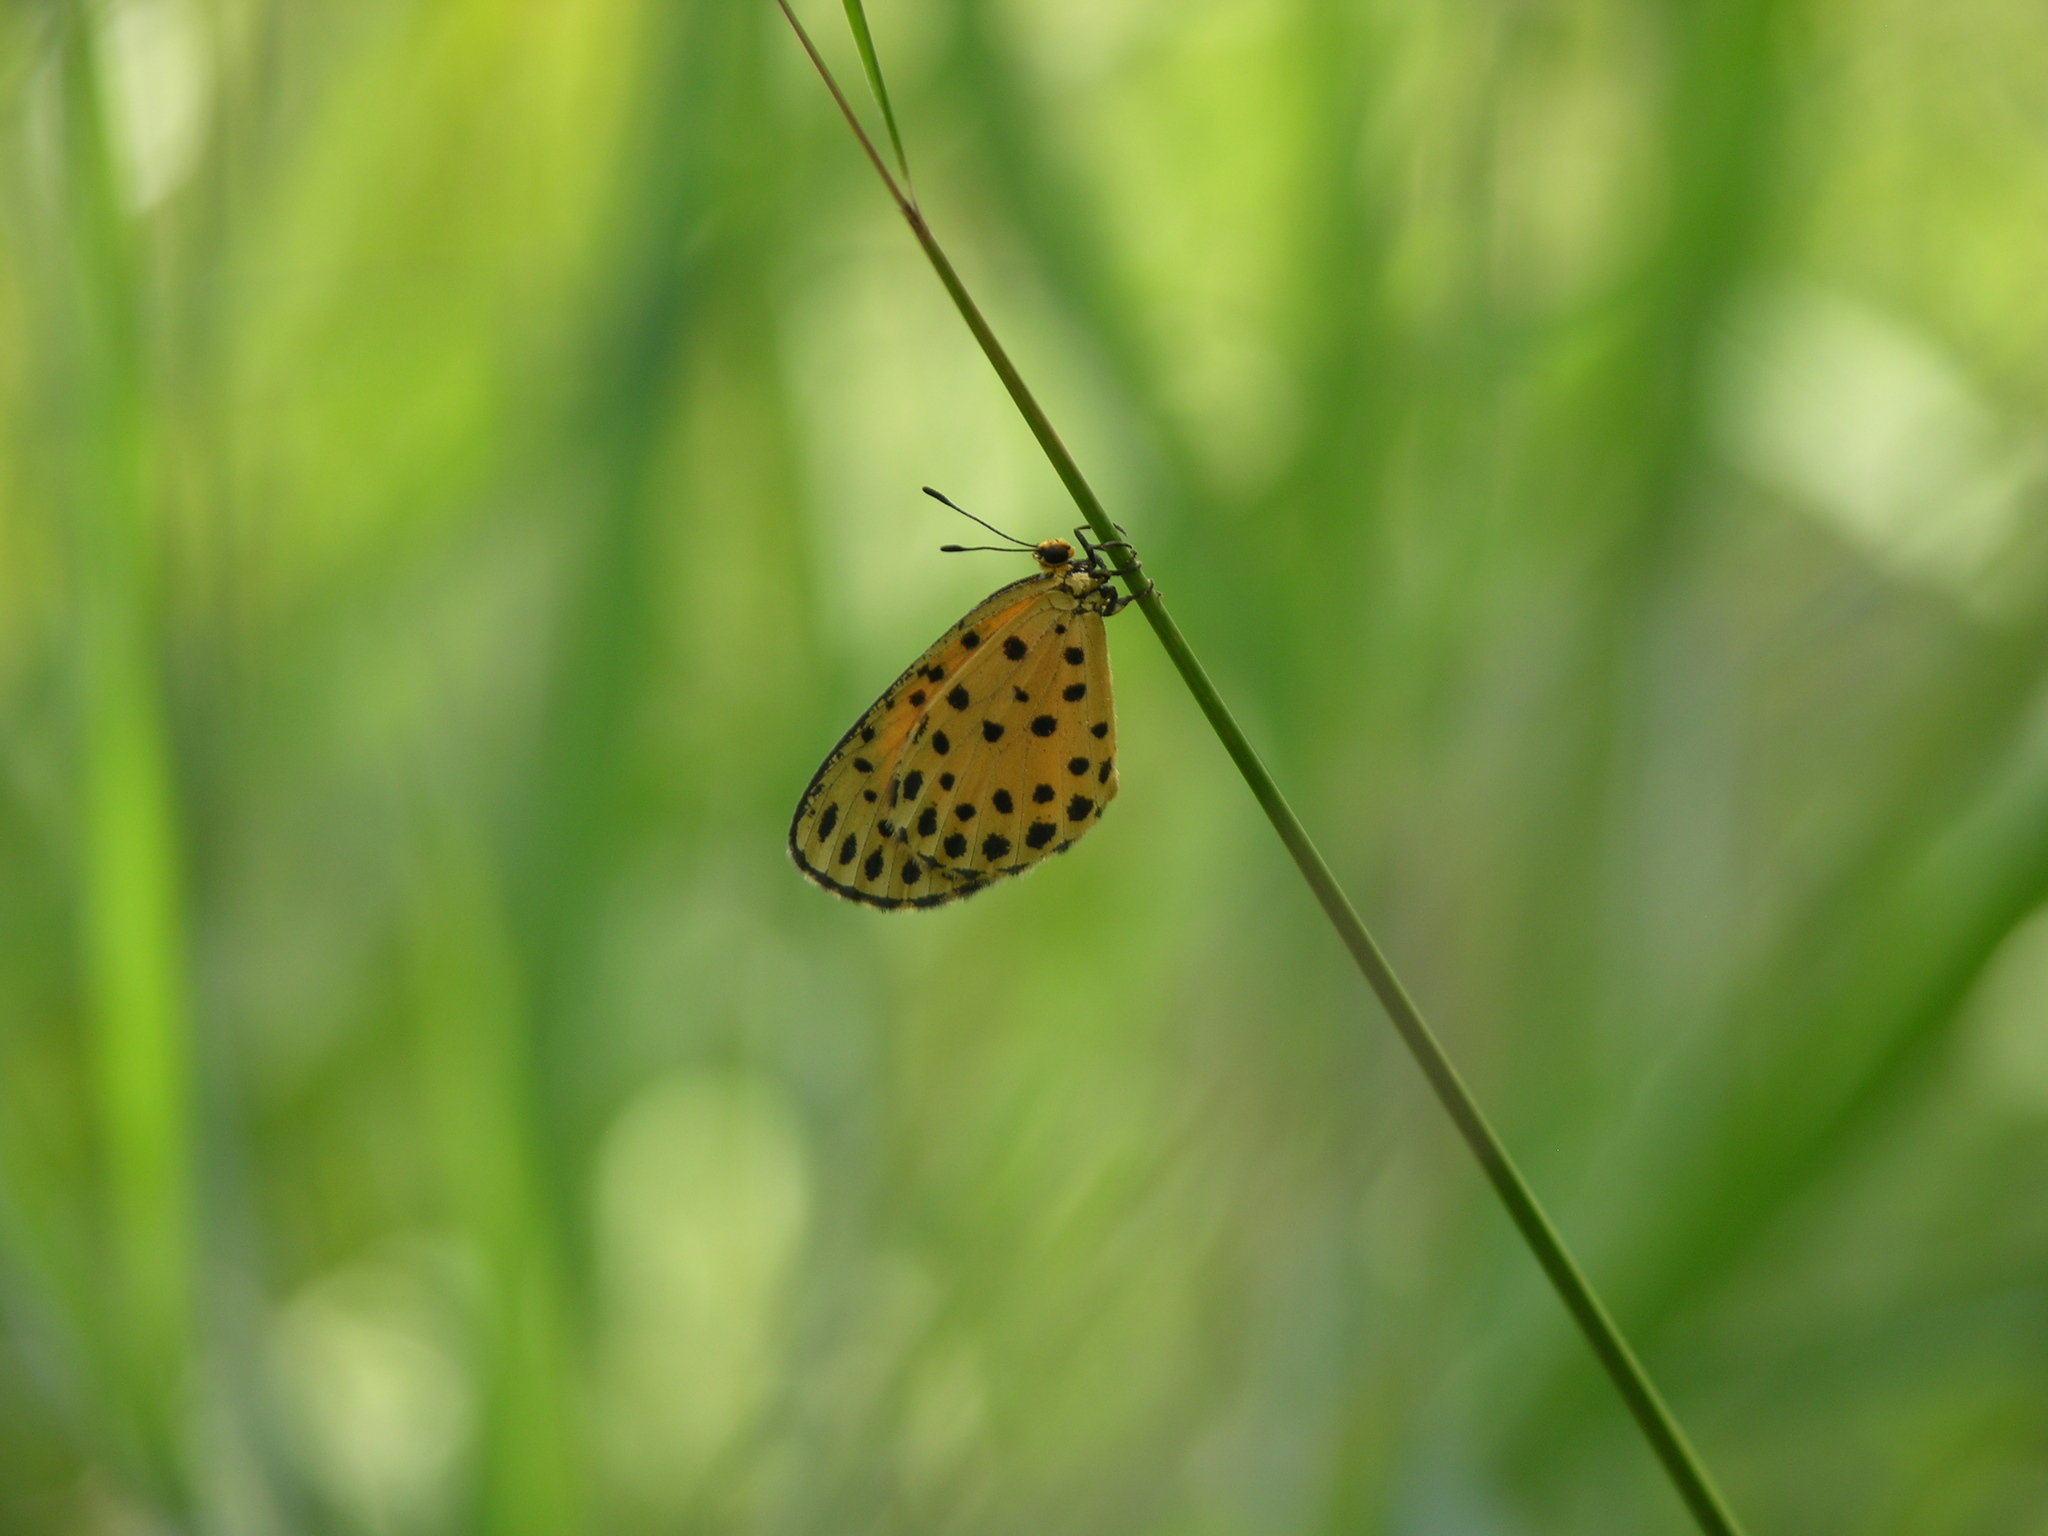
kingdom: Animalia
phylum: Arthropoda
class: Insecta
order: Lepidoptera
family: Lycaenidae
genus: Pentila
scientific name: Pentila pauli
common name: Paul's pentila
